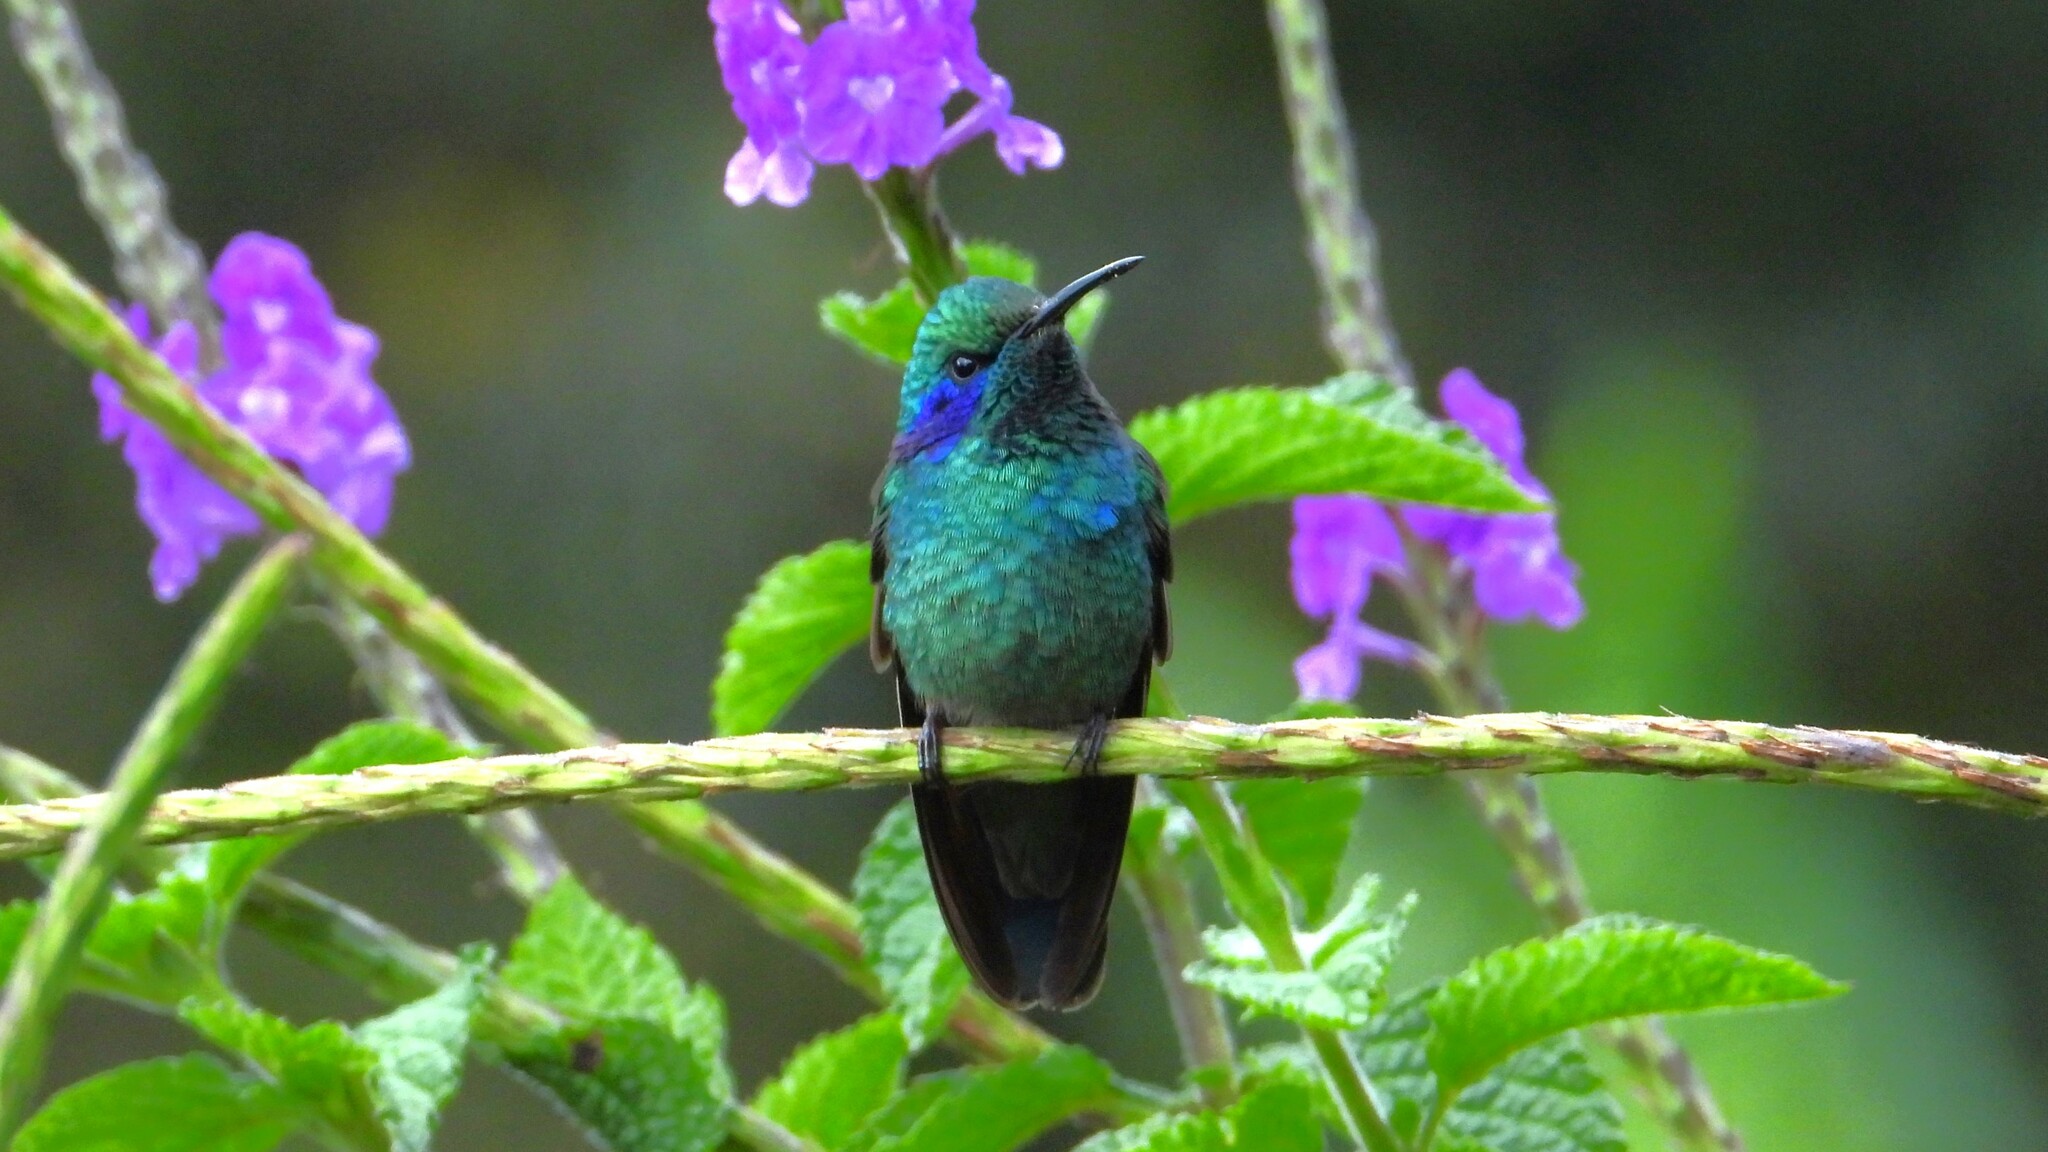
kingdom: Animalia
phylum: Chordata
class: Aves
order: Apodiformes
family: Trochilidae
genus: Colibri
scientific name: Colibri cyanotus
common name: Lesser violetear
